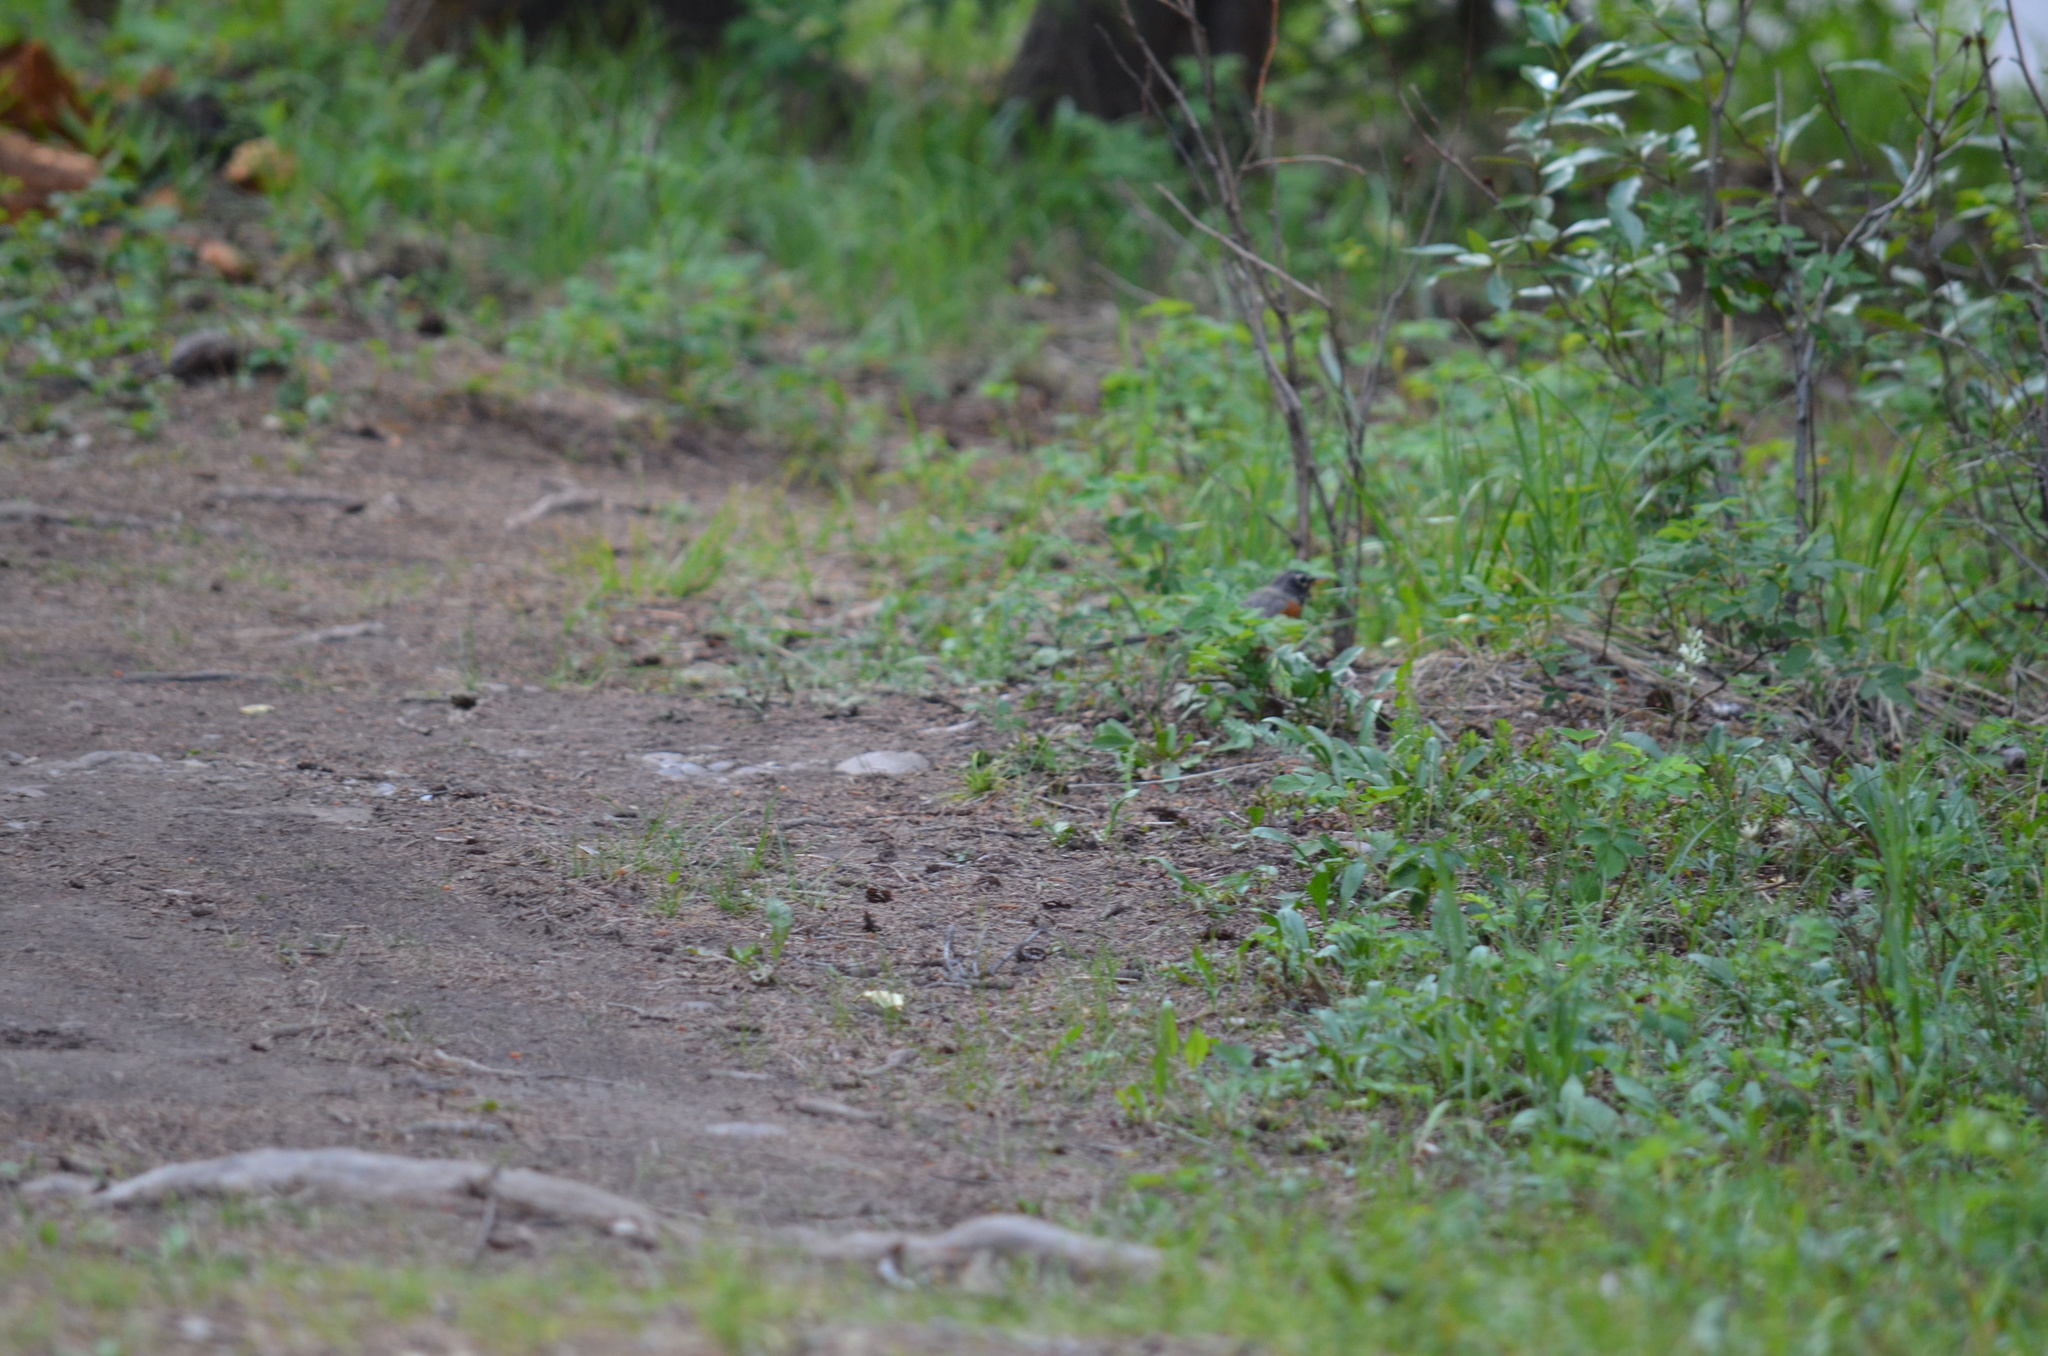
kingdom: Animalia
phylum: Chordata
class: Aves
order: Passeriformes
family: Turdidae
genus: Turdus
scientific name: Turdus migratorius
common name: American robin
